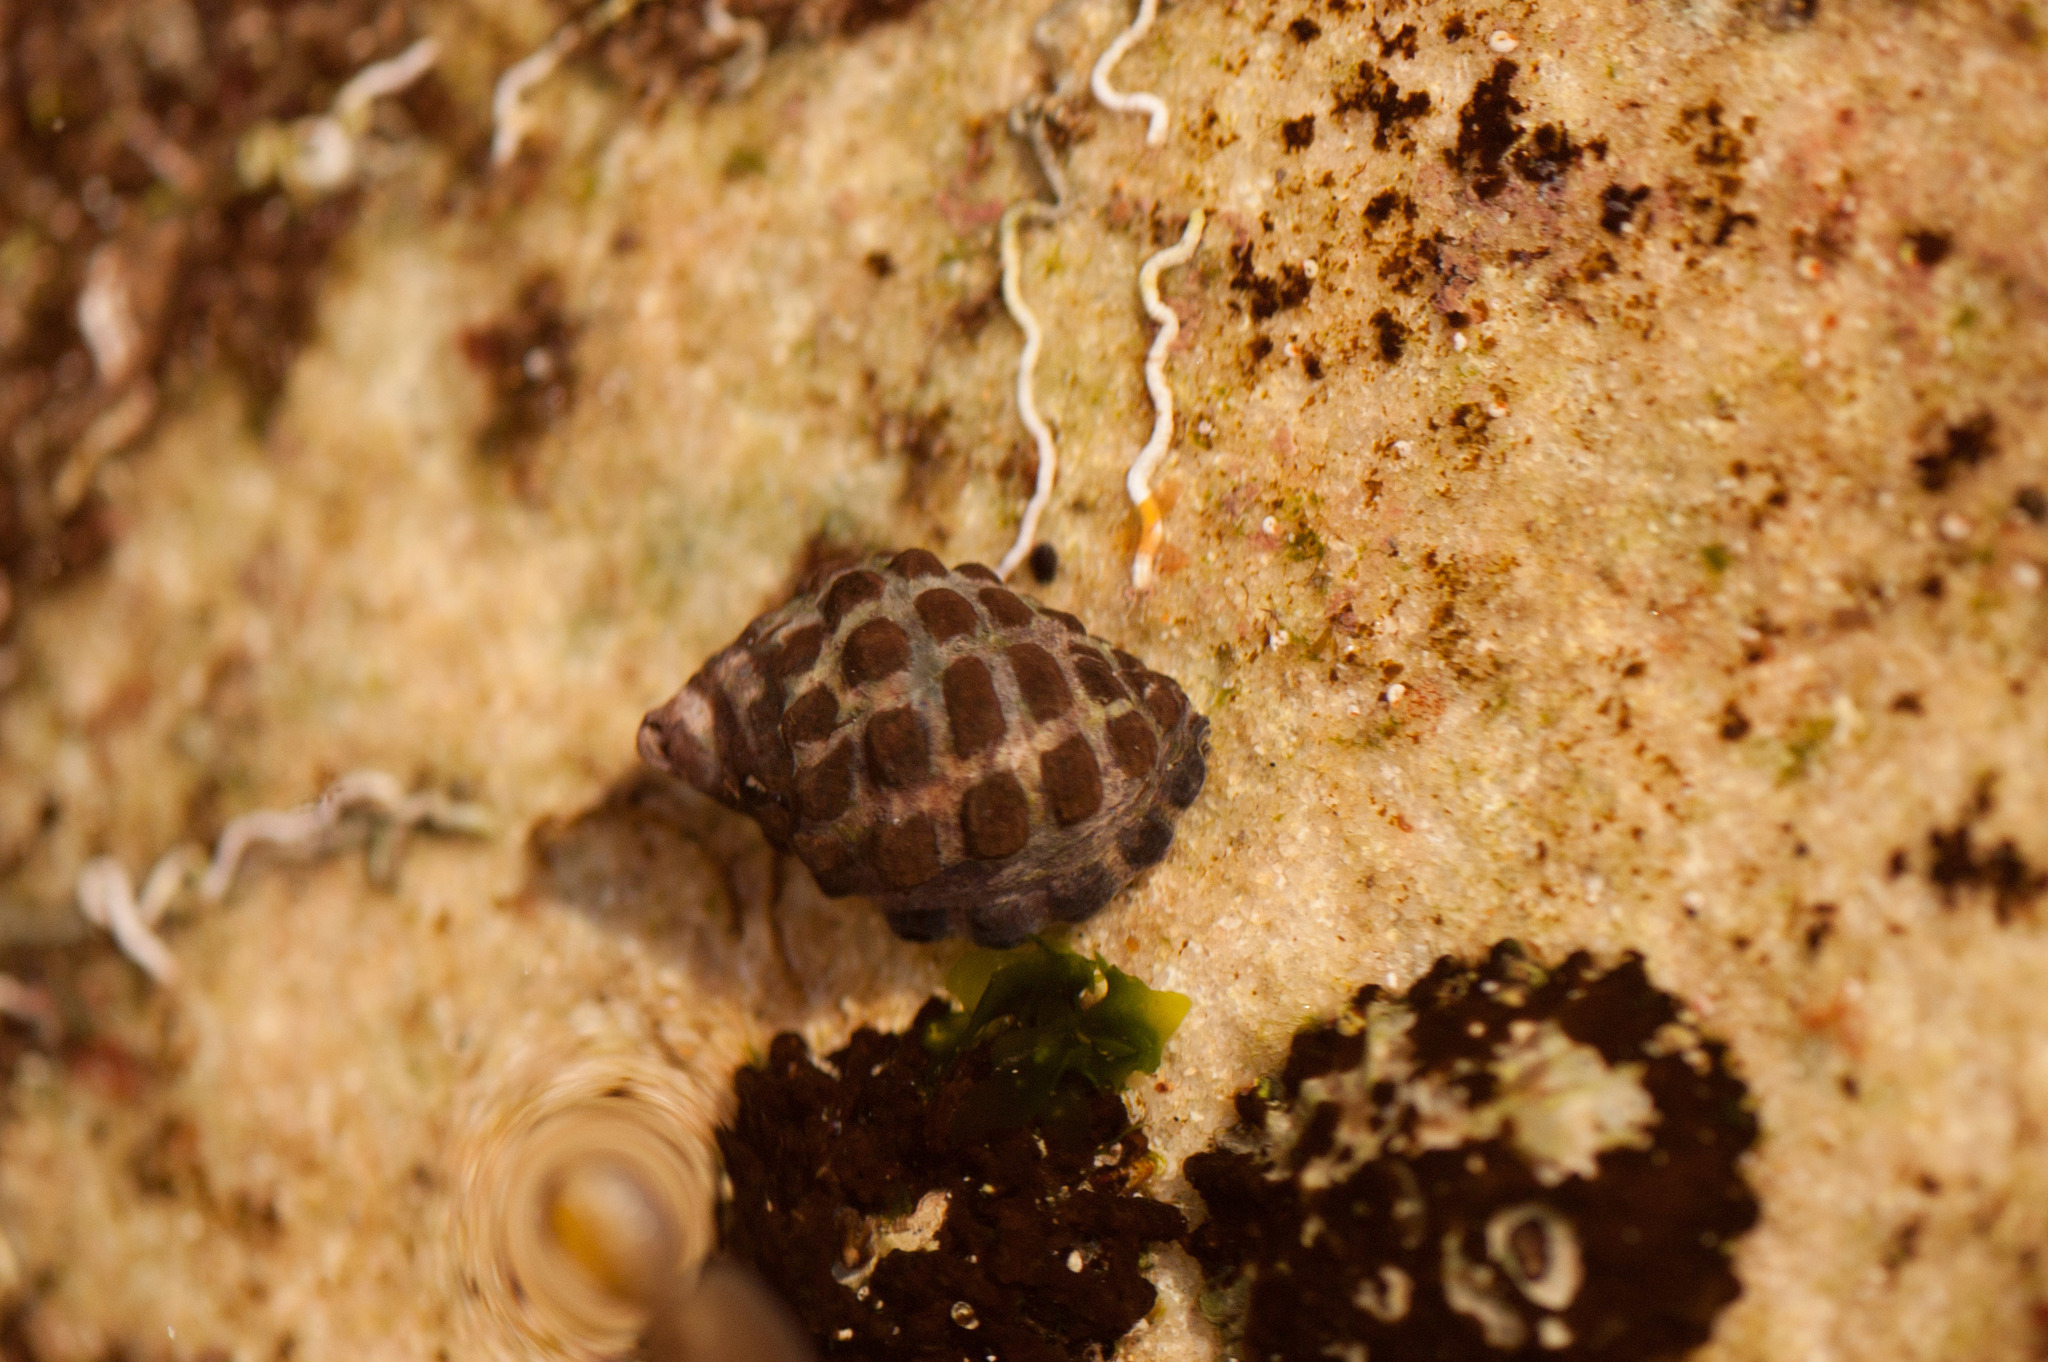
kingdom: Animalia
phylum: Mollusca
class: Gastropoda
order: Neogastropoda
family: Muricidae
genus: Tenguella
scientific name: Tenguella marginalba
